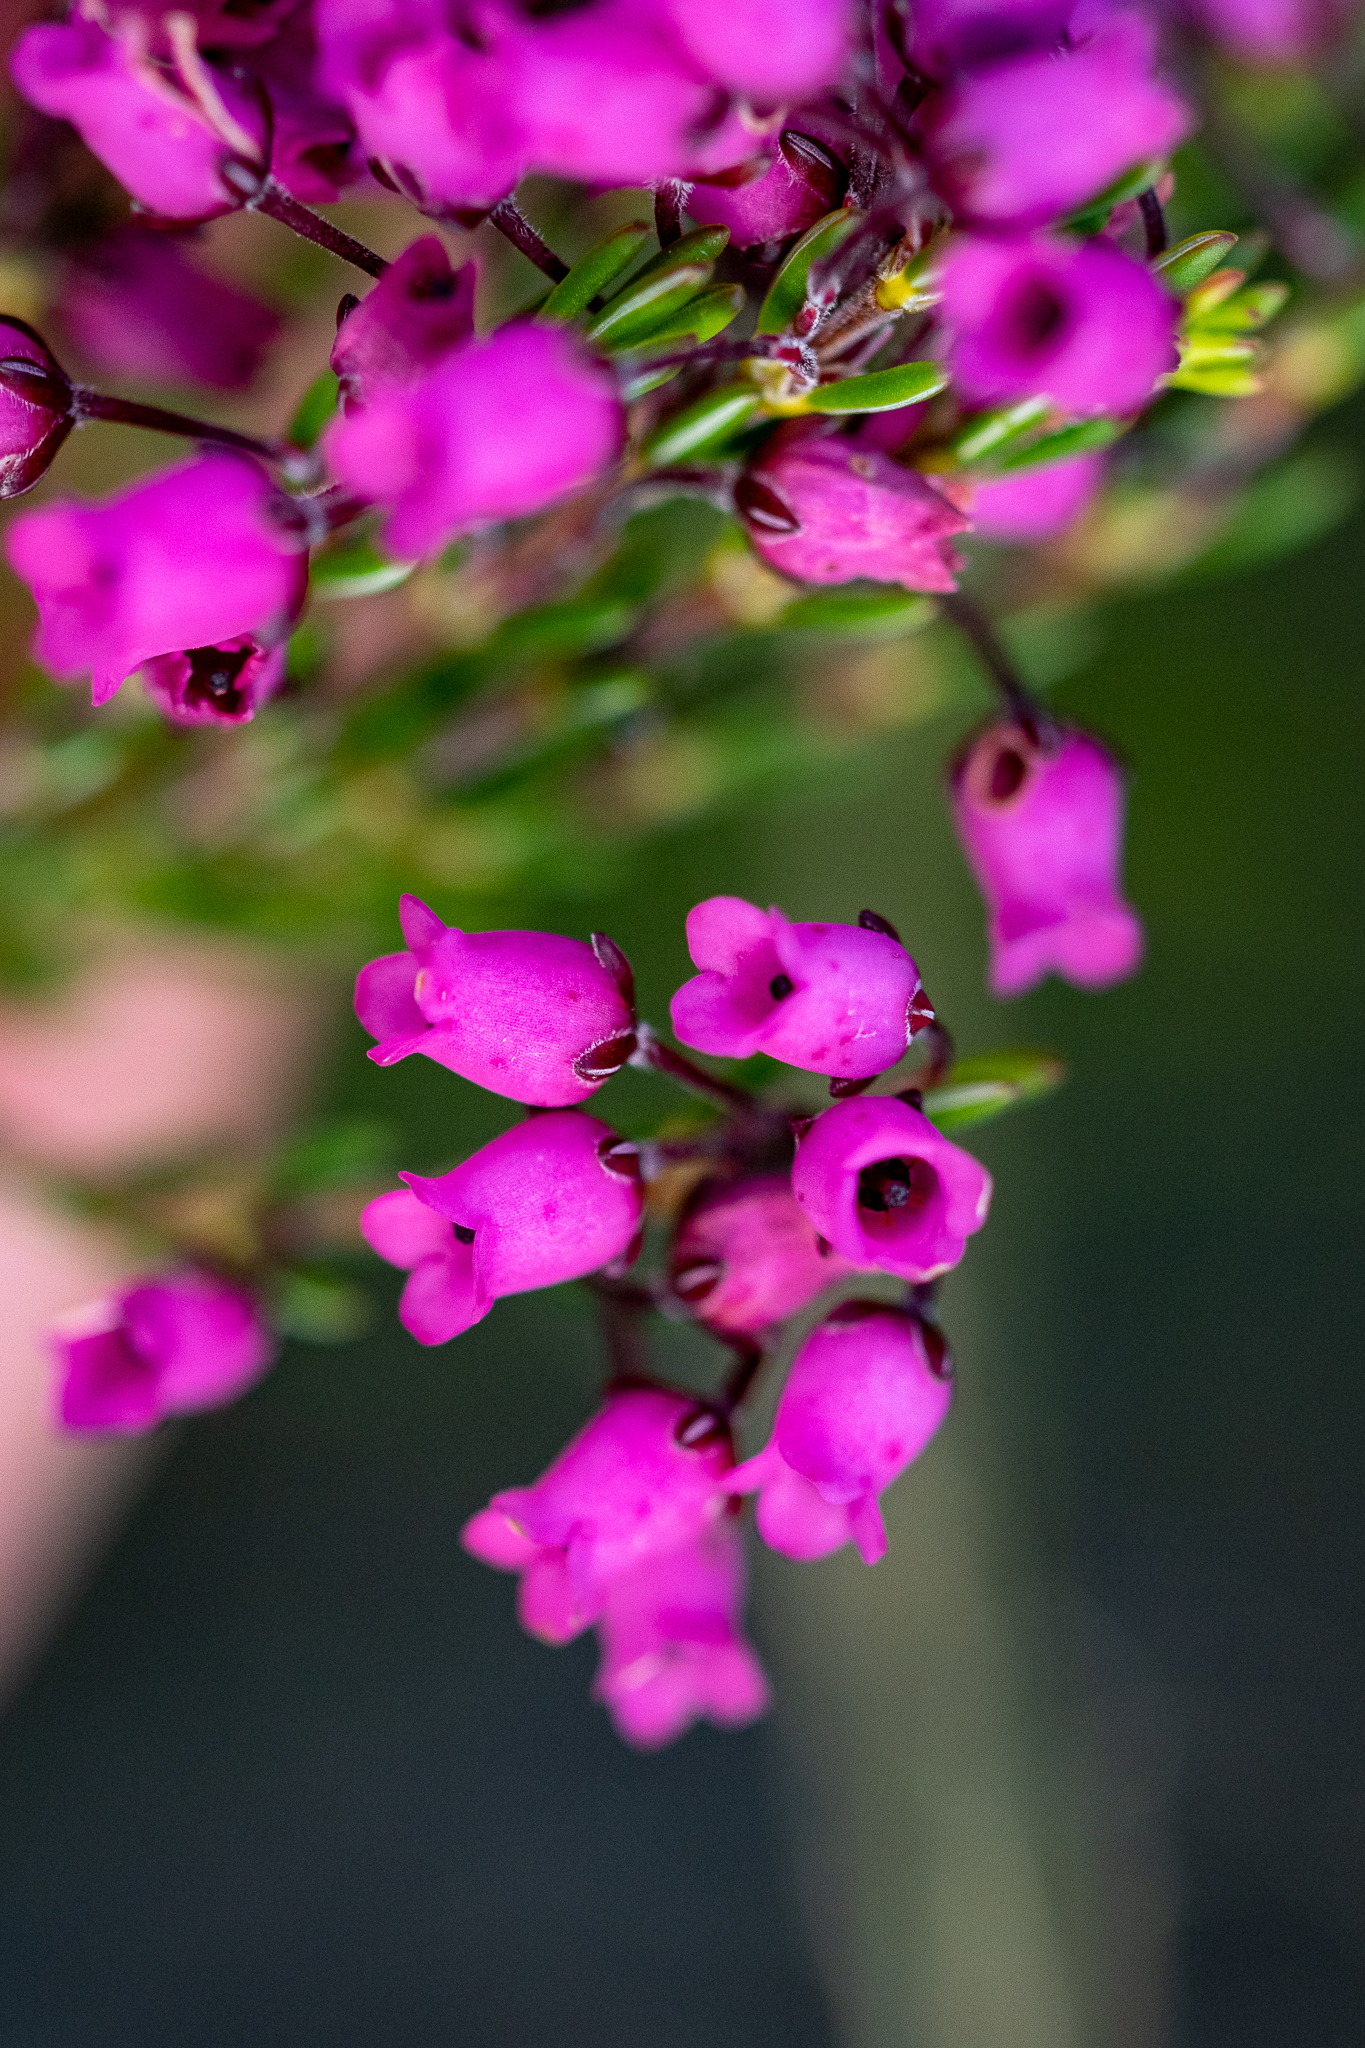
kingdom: Plantae
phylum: Tracheophyta
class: Magnoliopsida
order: Ericales
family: Ericaceae
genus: Erica
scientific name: Erica pulchella
